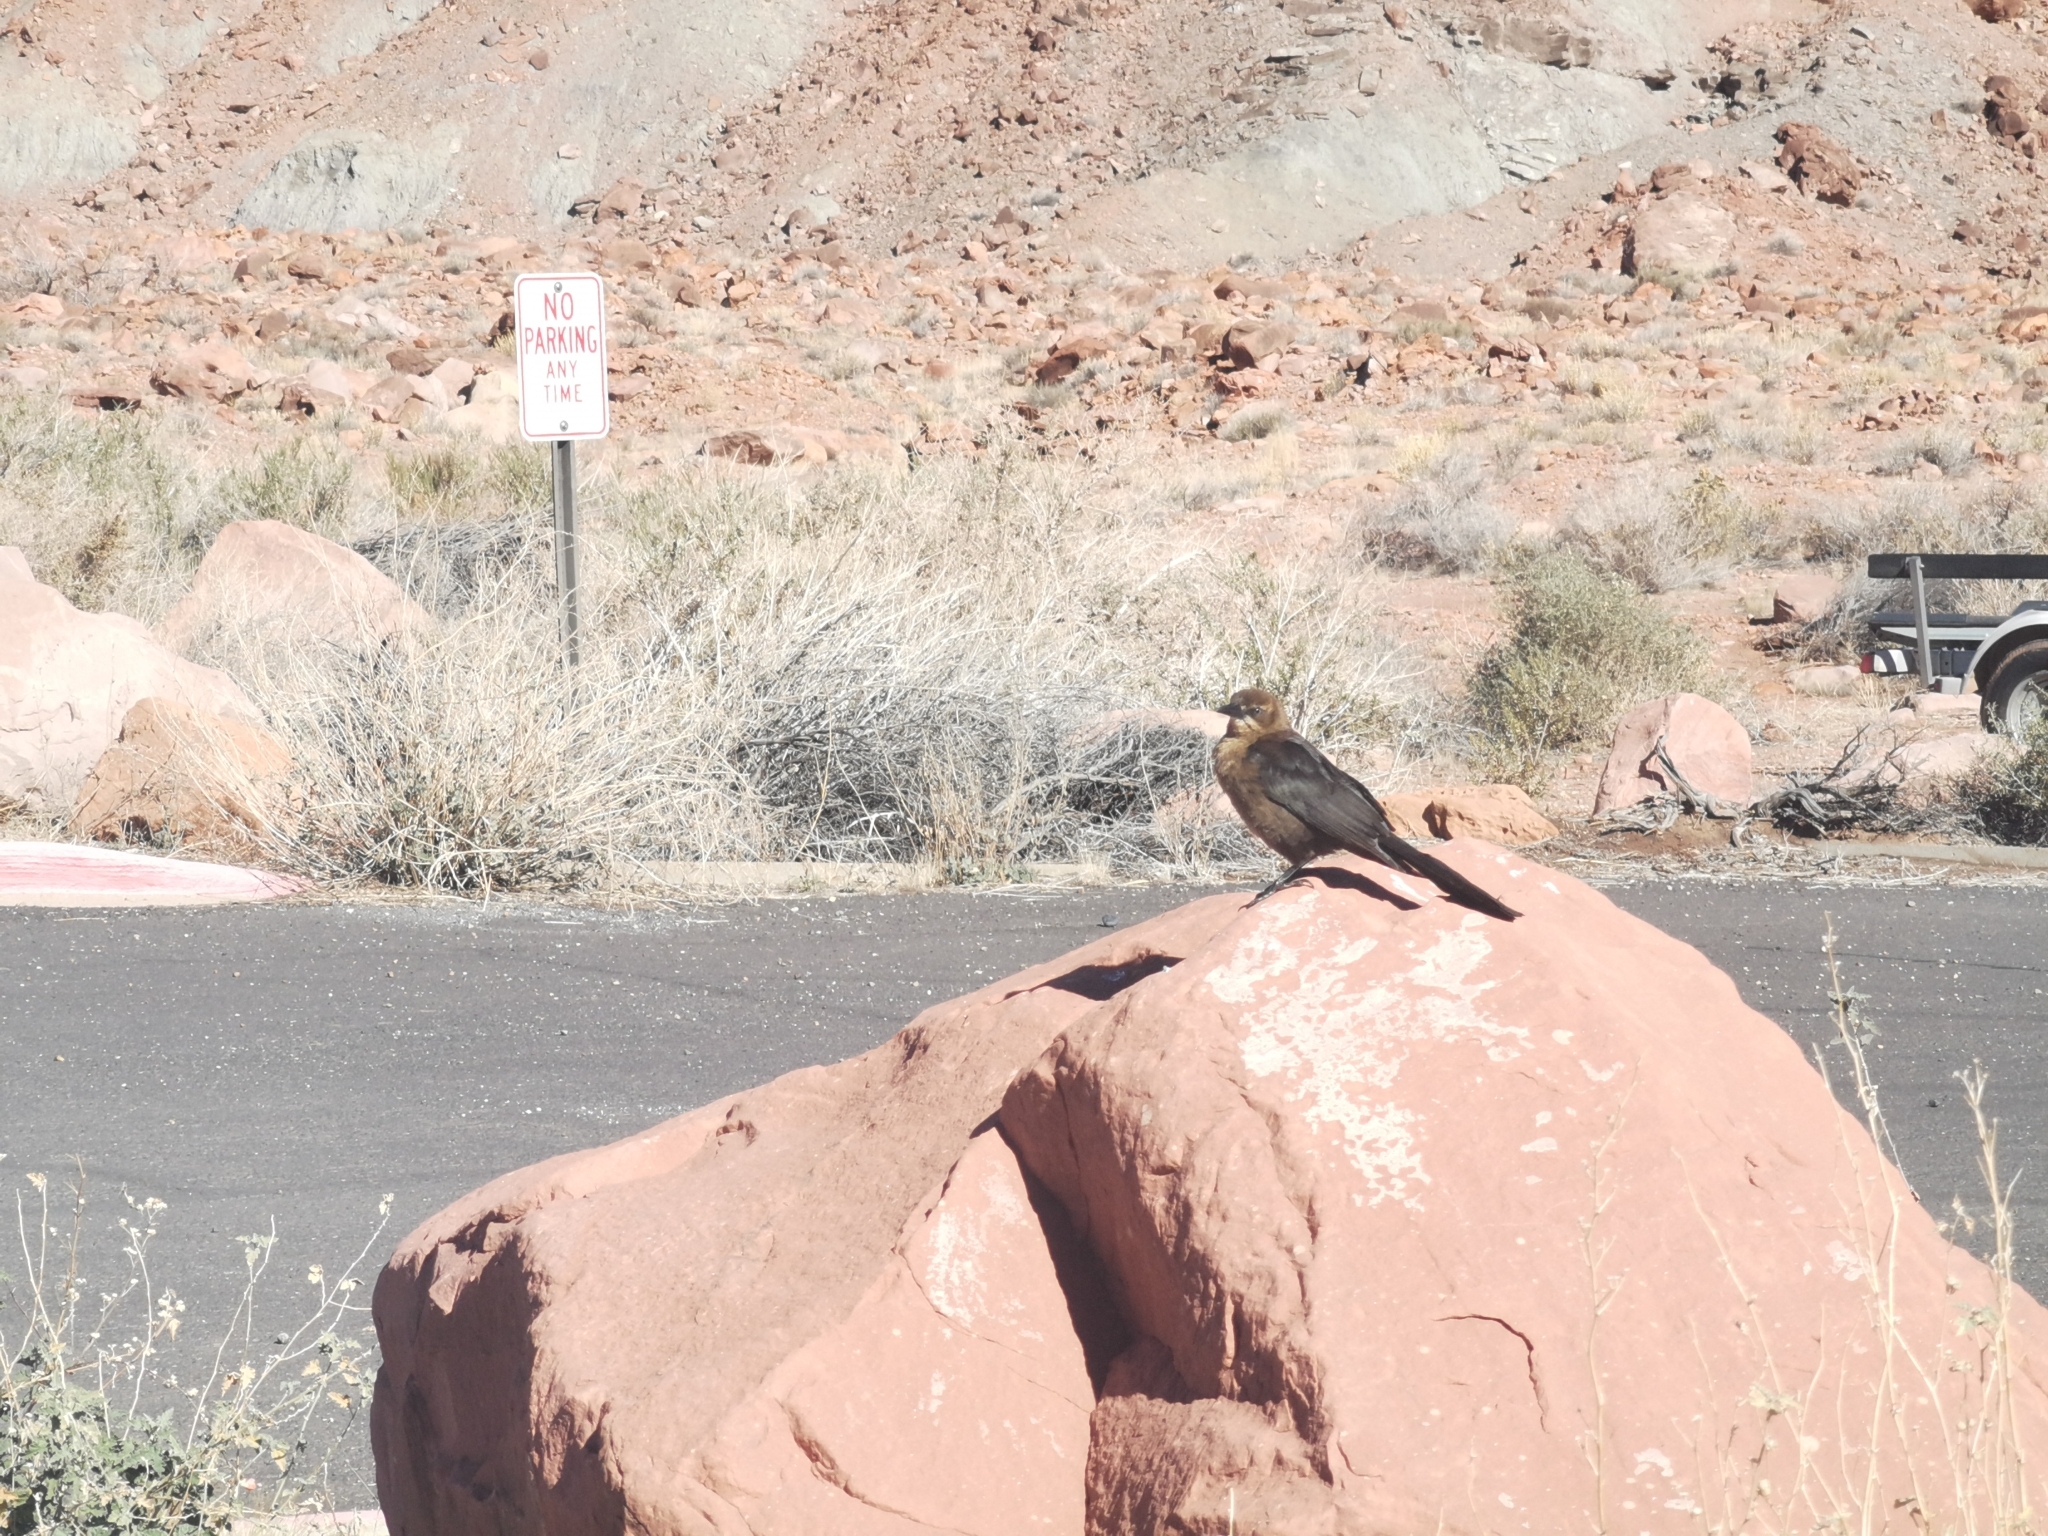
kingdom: Animalia
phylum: Chordata
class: Aves
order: Passeriformes
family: Icteridae
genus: Quiscalus
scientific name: Quiscalus mexicanus
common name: Great-tailed grackle
